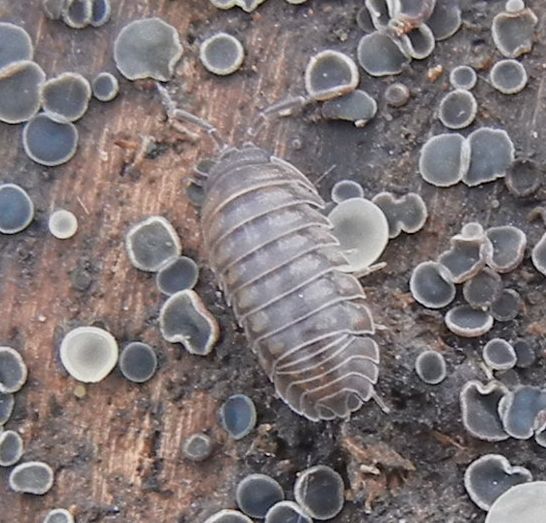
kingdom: Animalia
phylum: Arthropoda
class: Malacostraca
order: Isopoda
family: Armadillidiidae
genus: Armadillidium
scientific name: Armadillidium nasatum
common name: Isopod
